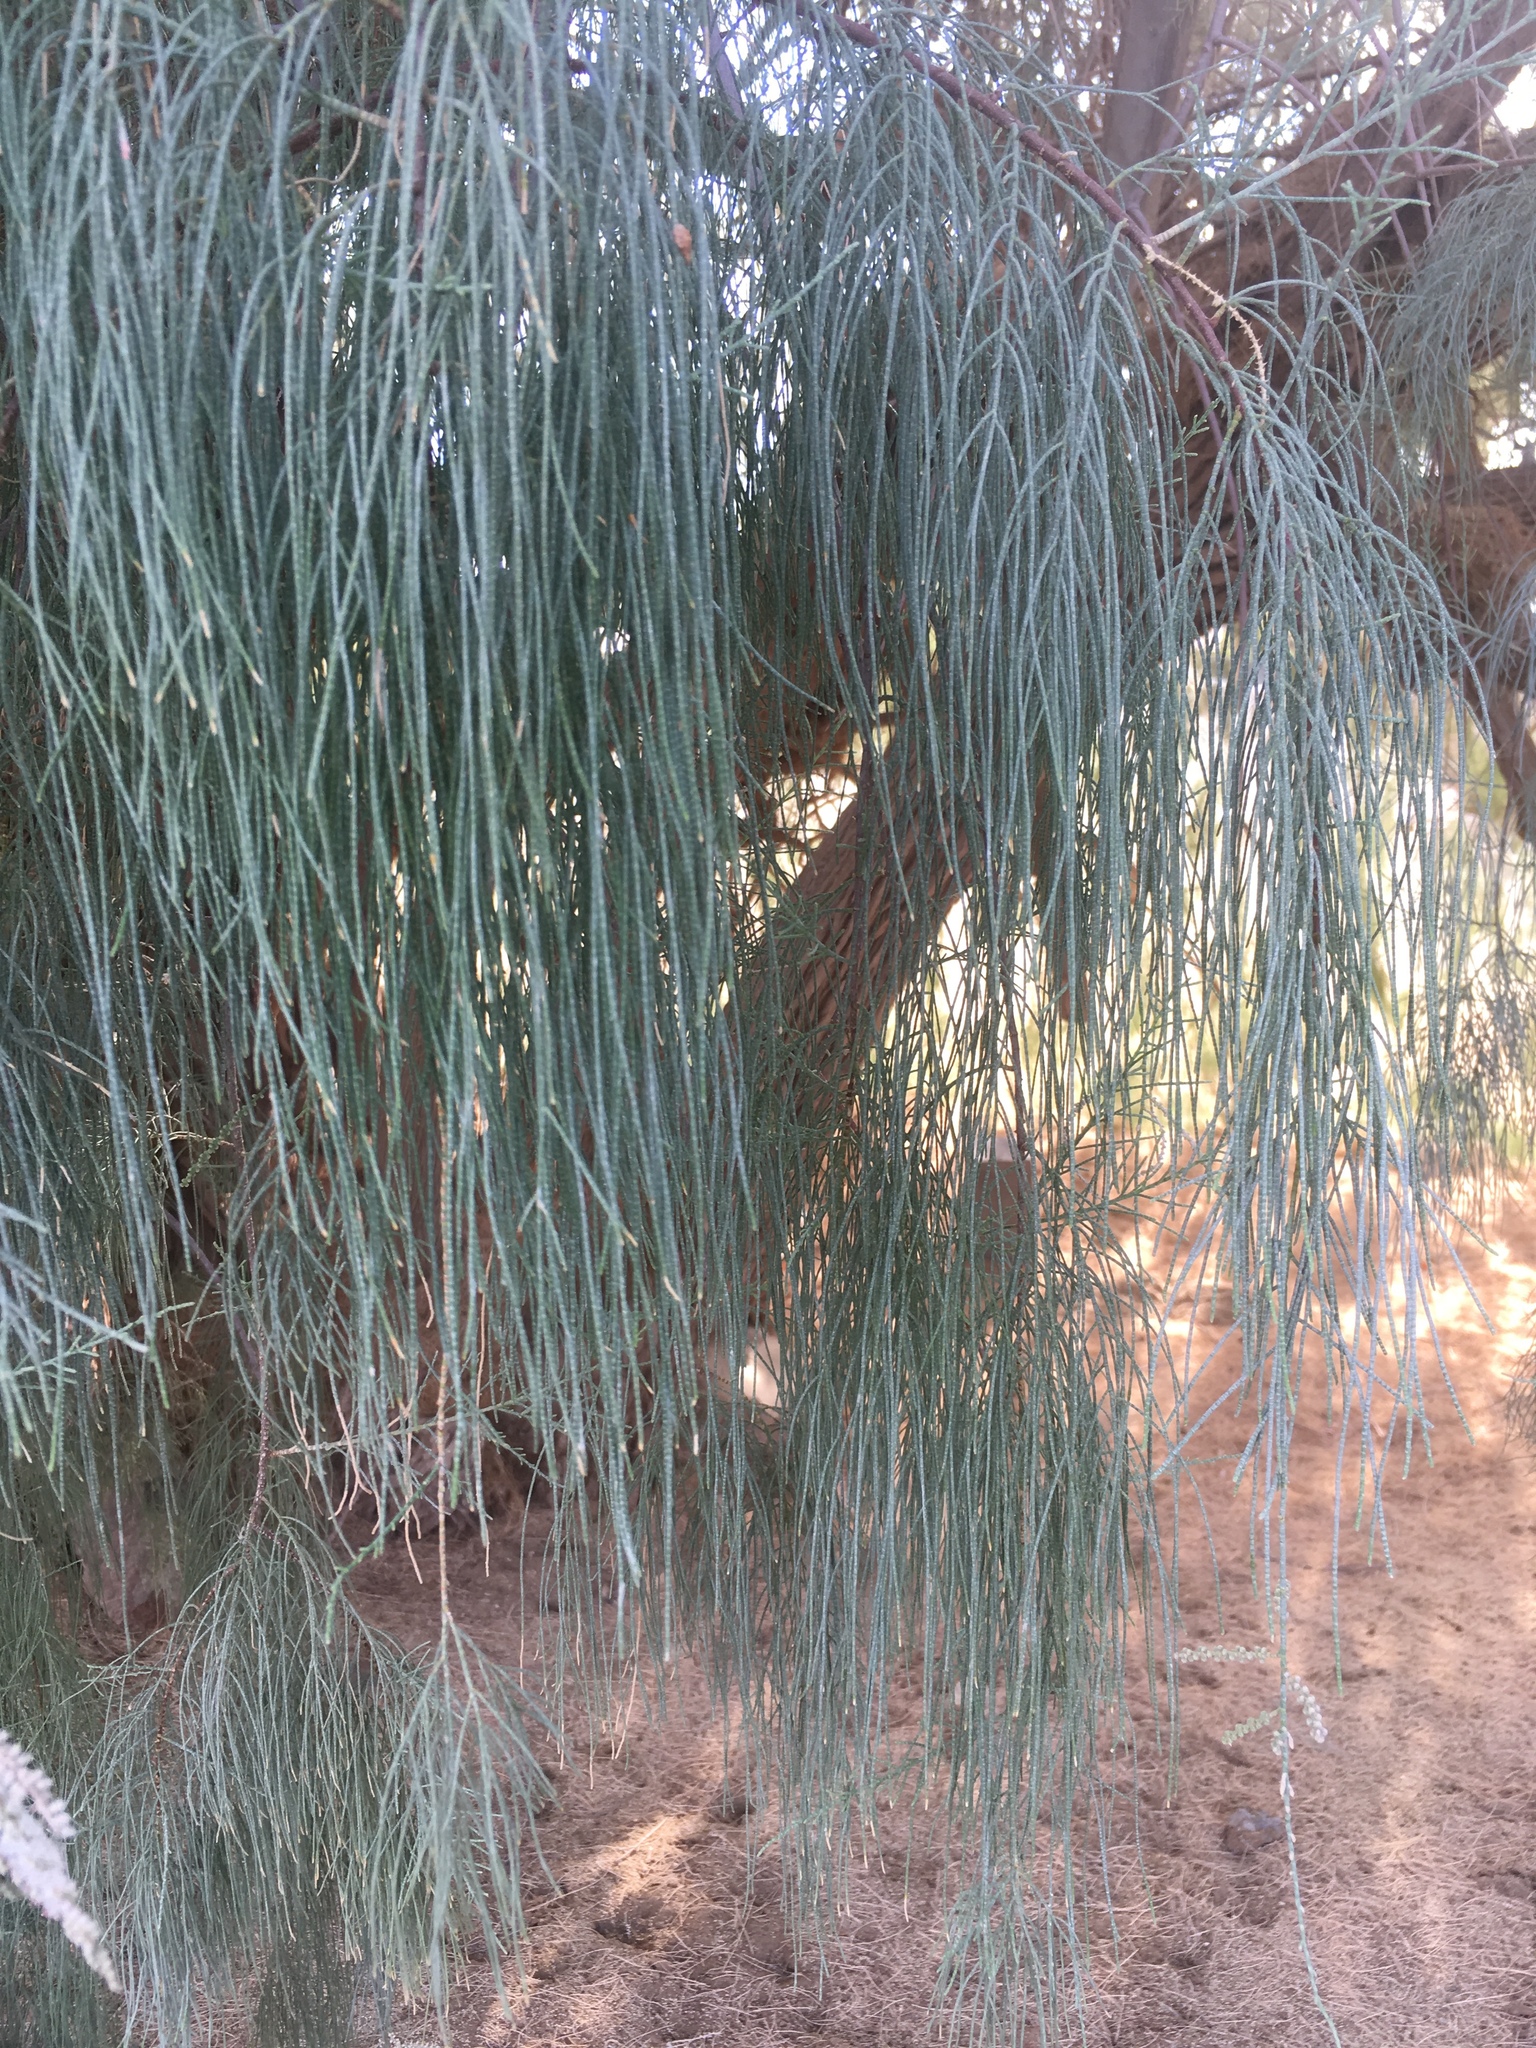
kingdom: Plantae
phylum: Tracheophyta
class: Magnoliopsida
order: Caryophyllales
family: Tamaricaceae
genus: Tamarix
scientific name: Tamarix aphylla
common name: Athel tamarisk
